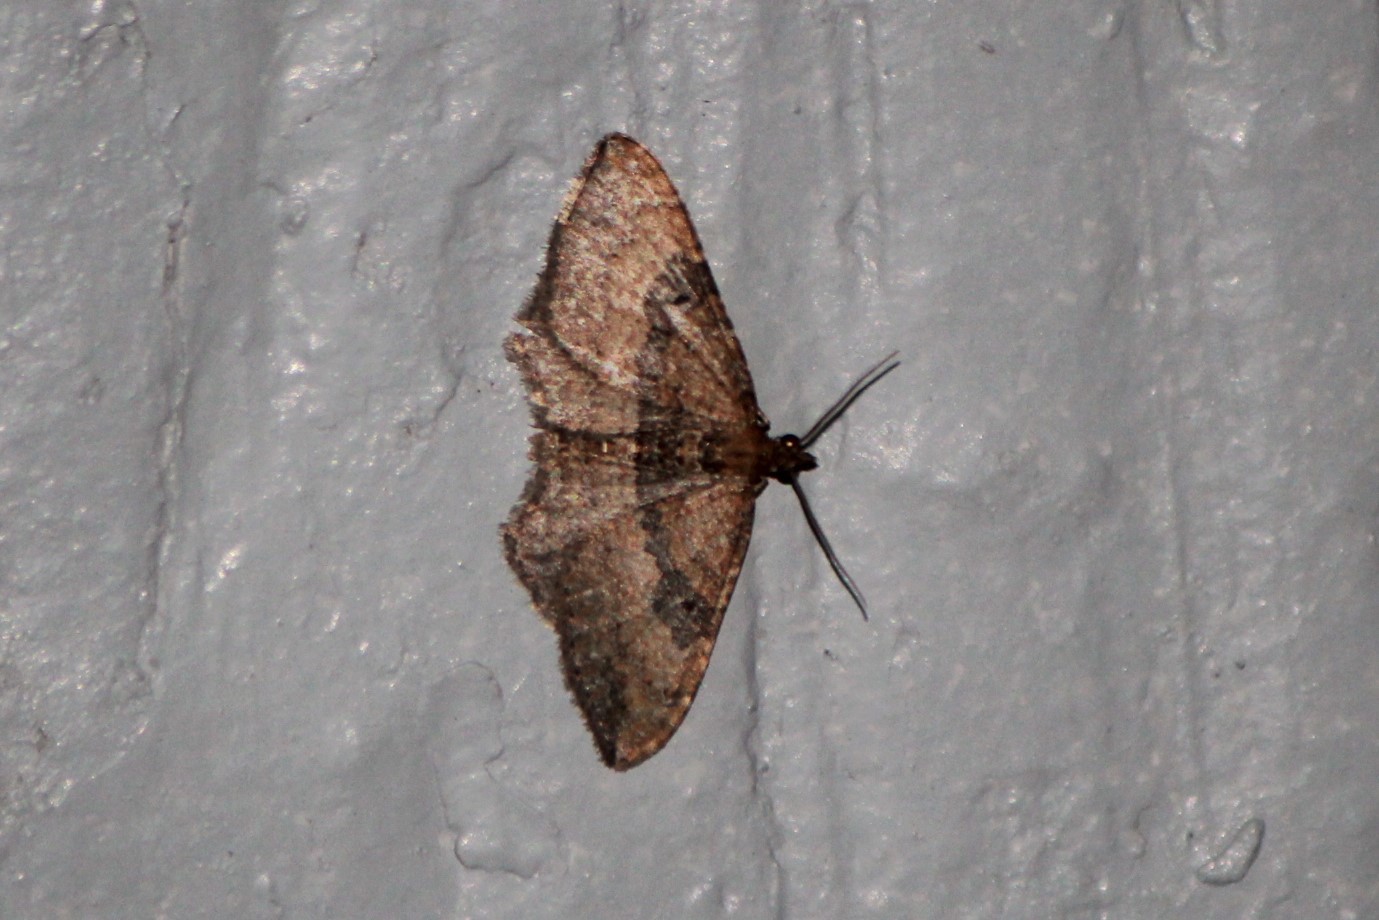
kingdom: Animalia
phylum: Arthropoda
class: Insecta
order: Lepidoptera
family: Geometridae
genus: Orthonama
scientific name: Orthonama obstipata
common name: The gem
